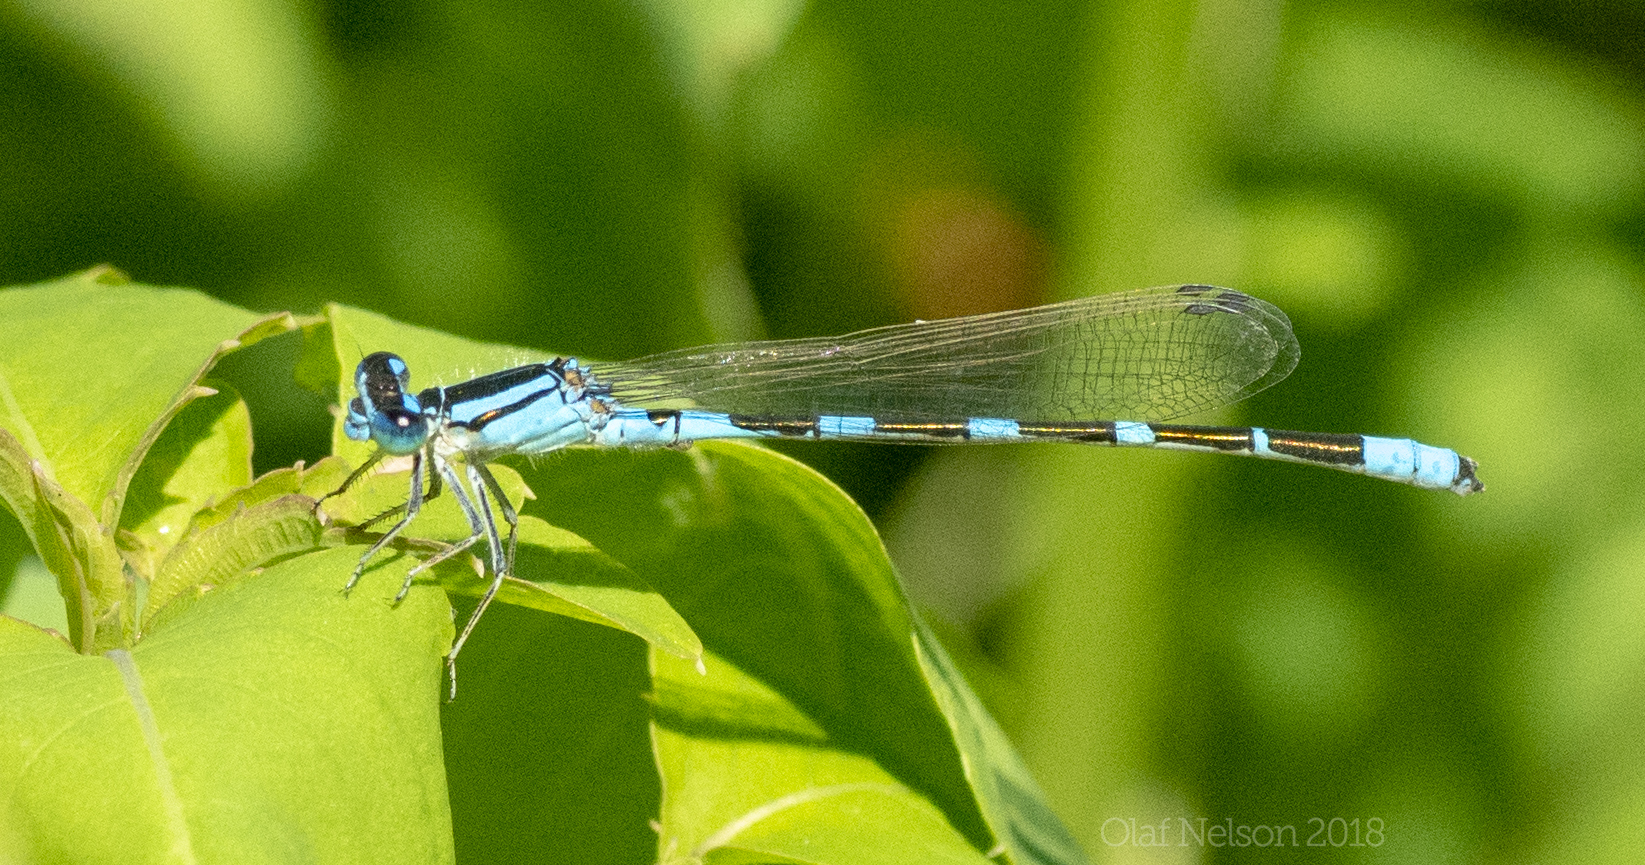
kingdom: Animalia
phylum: Arthropoda
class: Insecta
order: Odonata
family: Coenagrionidae
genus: Enallagma
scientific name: Enallagma carunculatum
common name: Tule bluet
